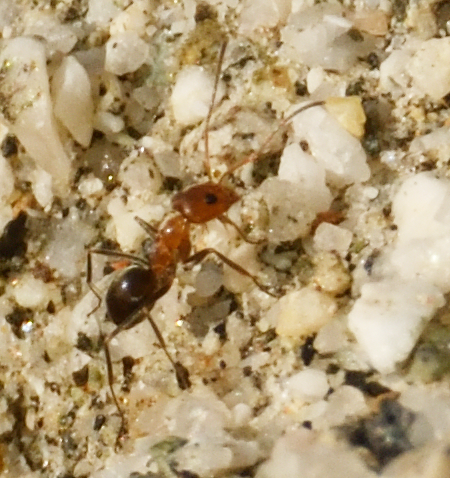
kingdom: Animalia
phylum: Arthropoda
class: Insecta
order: Hymenoptera
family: Formicidae
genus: Dorymyrmex
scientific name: Dorymyrmex bicolor
